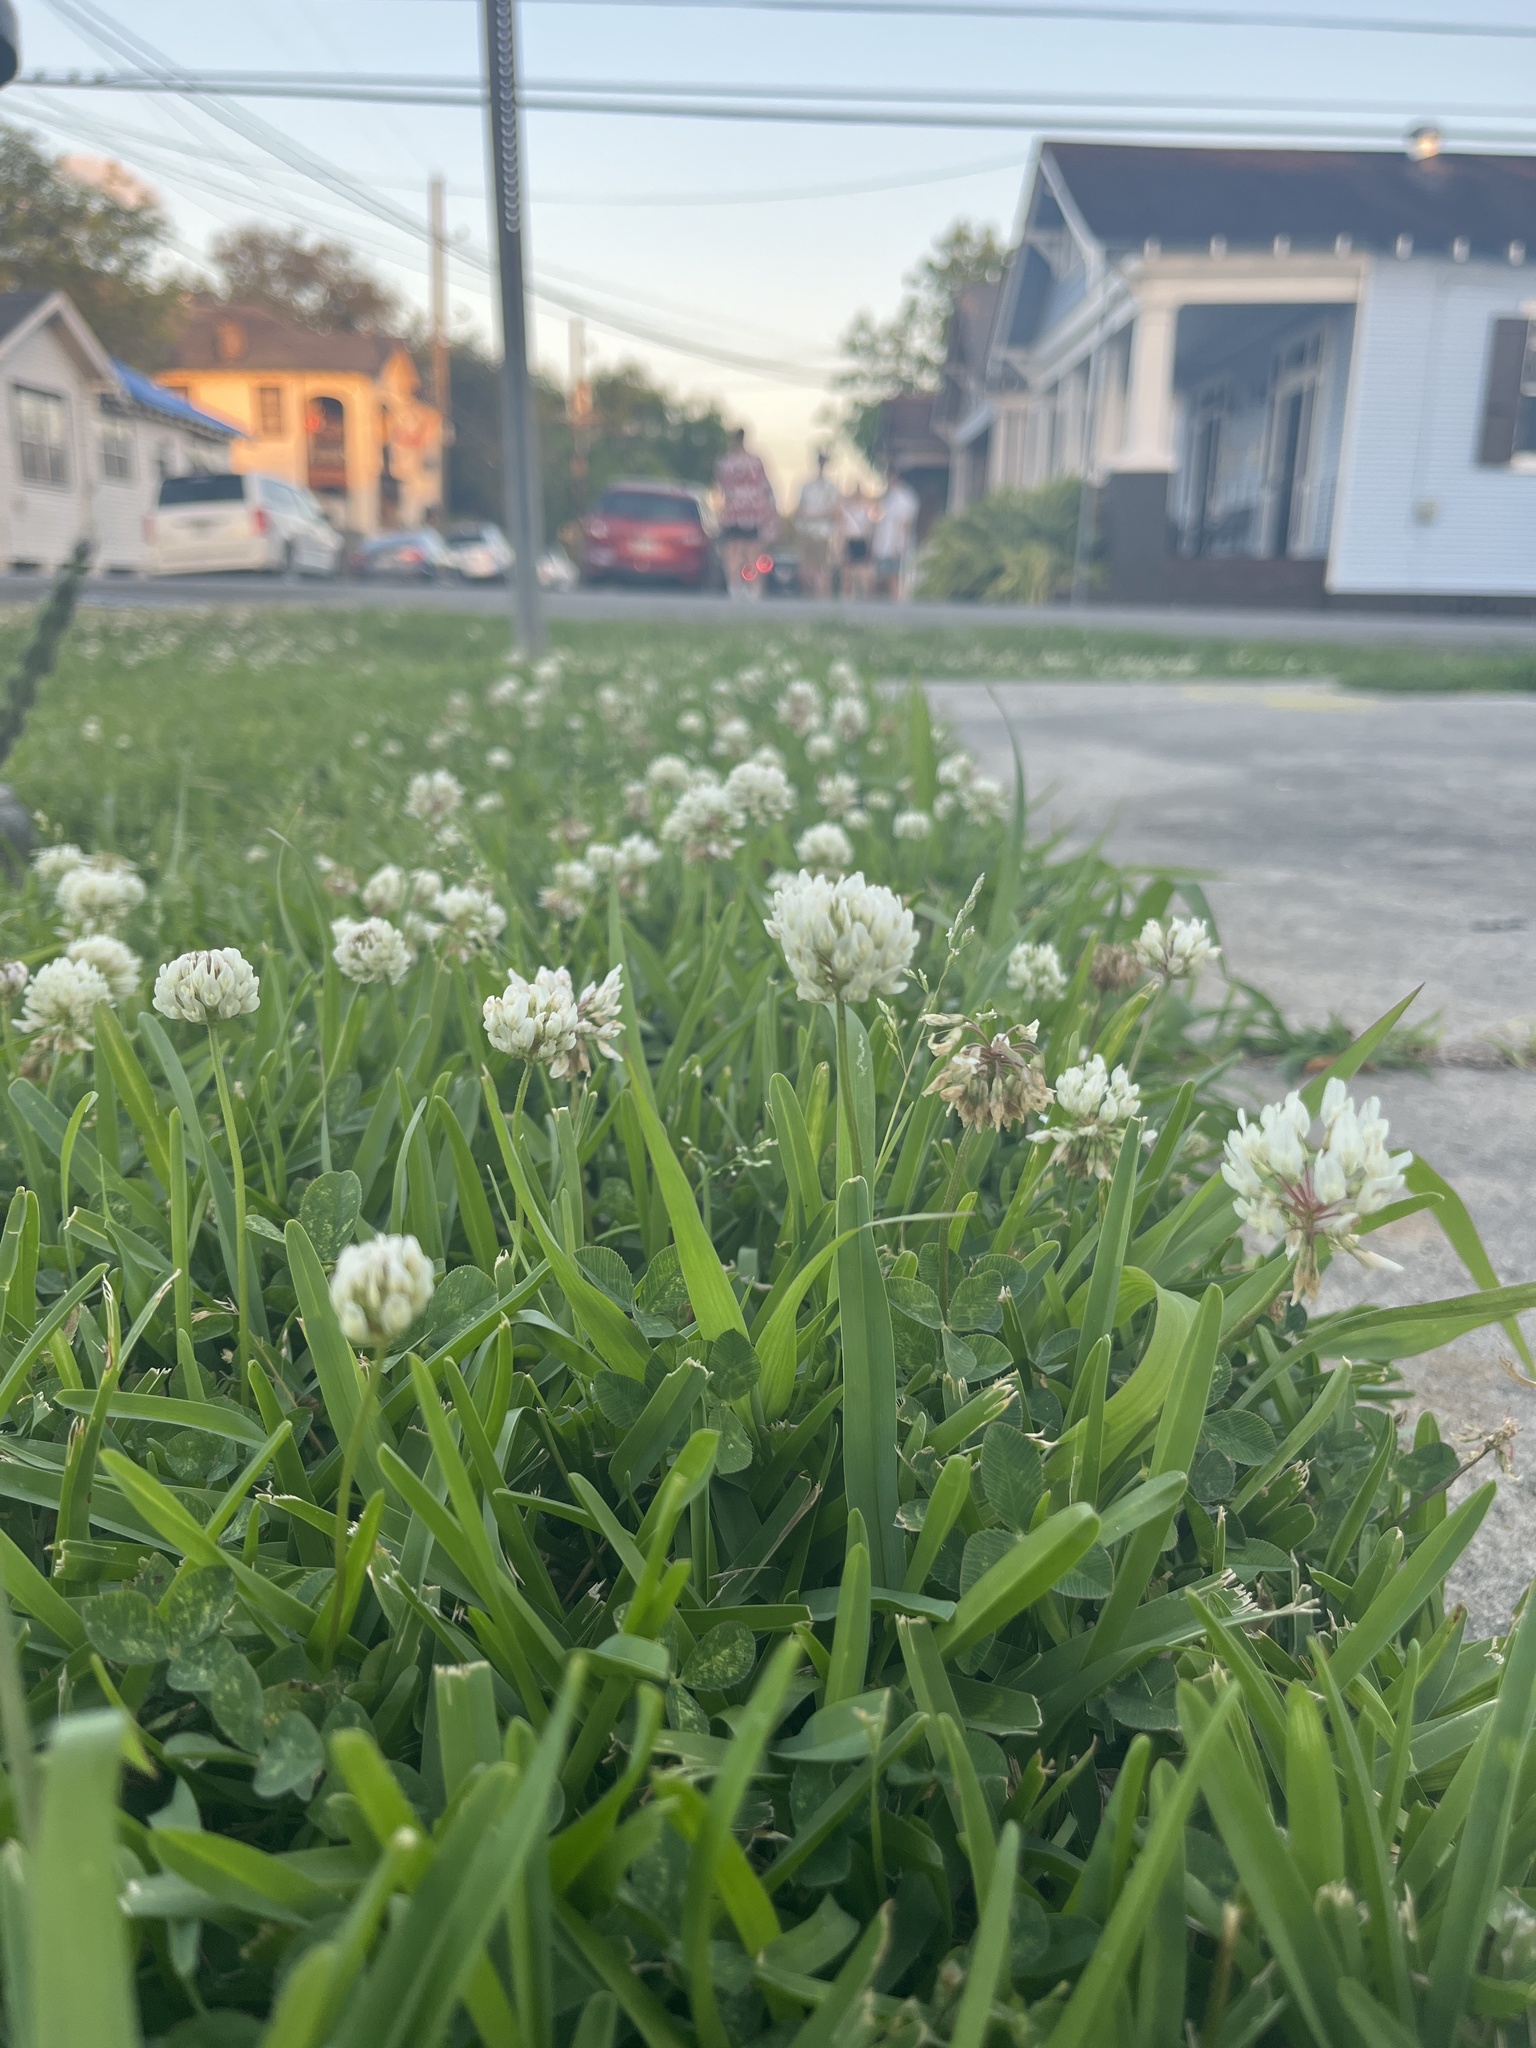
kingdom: Plantae
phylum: Tracheophyta
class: Magnoliopsida
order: Fabales
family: Fabaceae
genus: Trifolium
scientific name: Trifolium repens
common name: White clover
